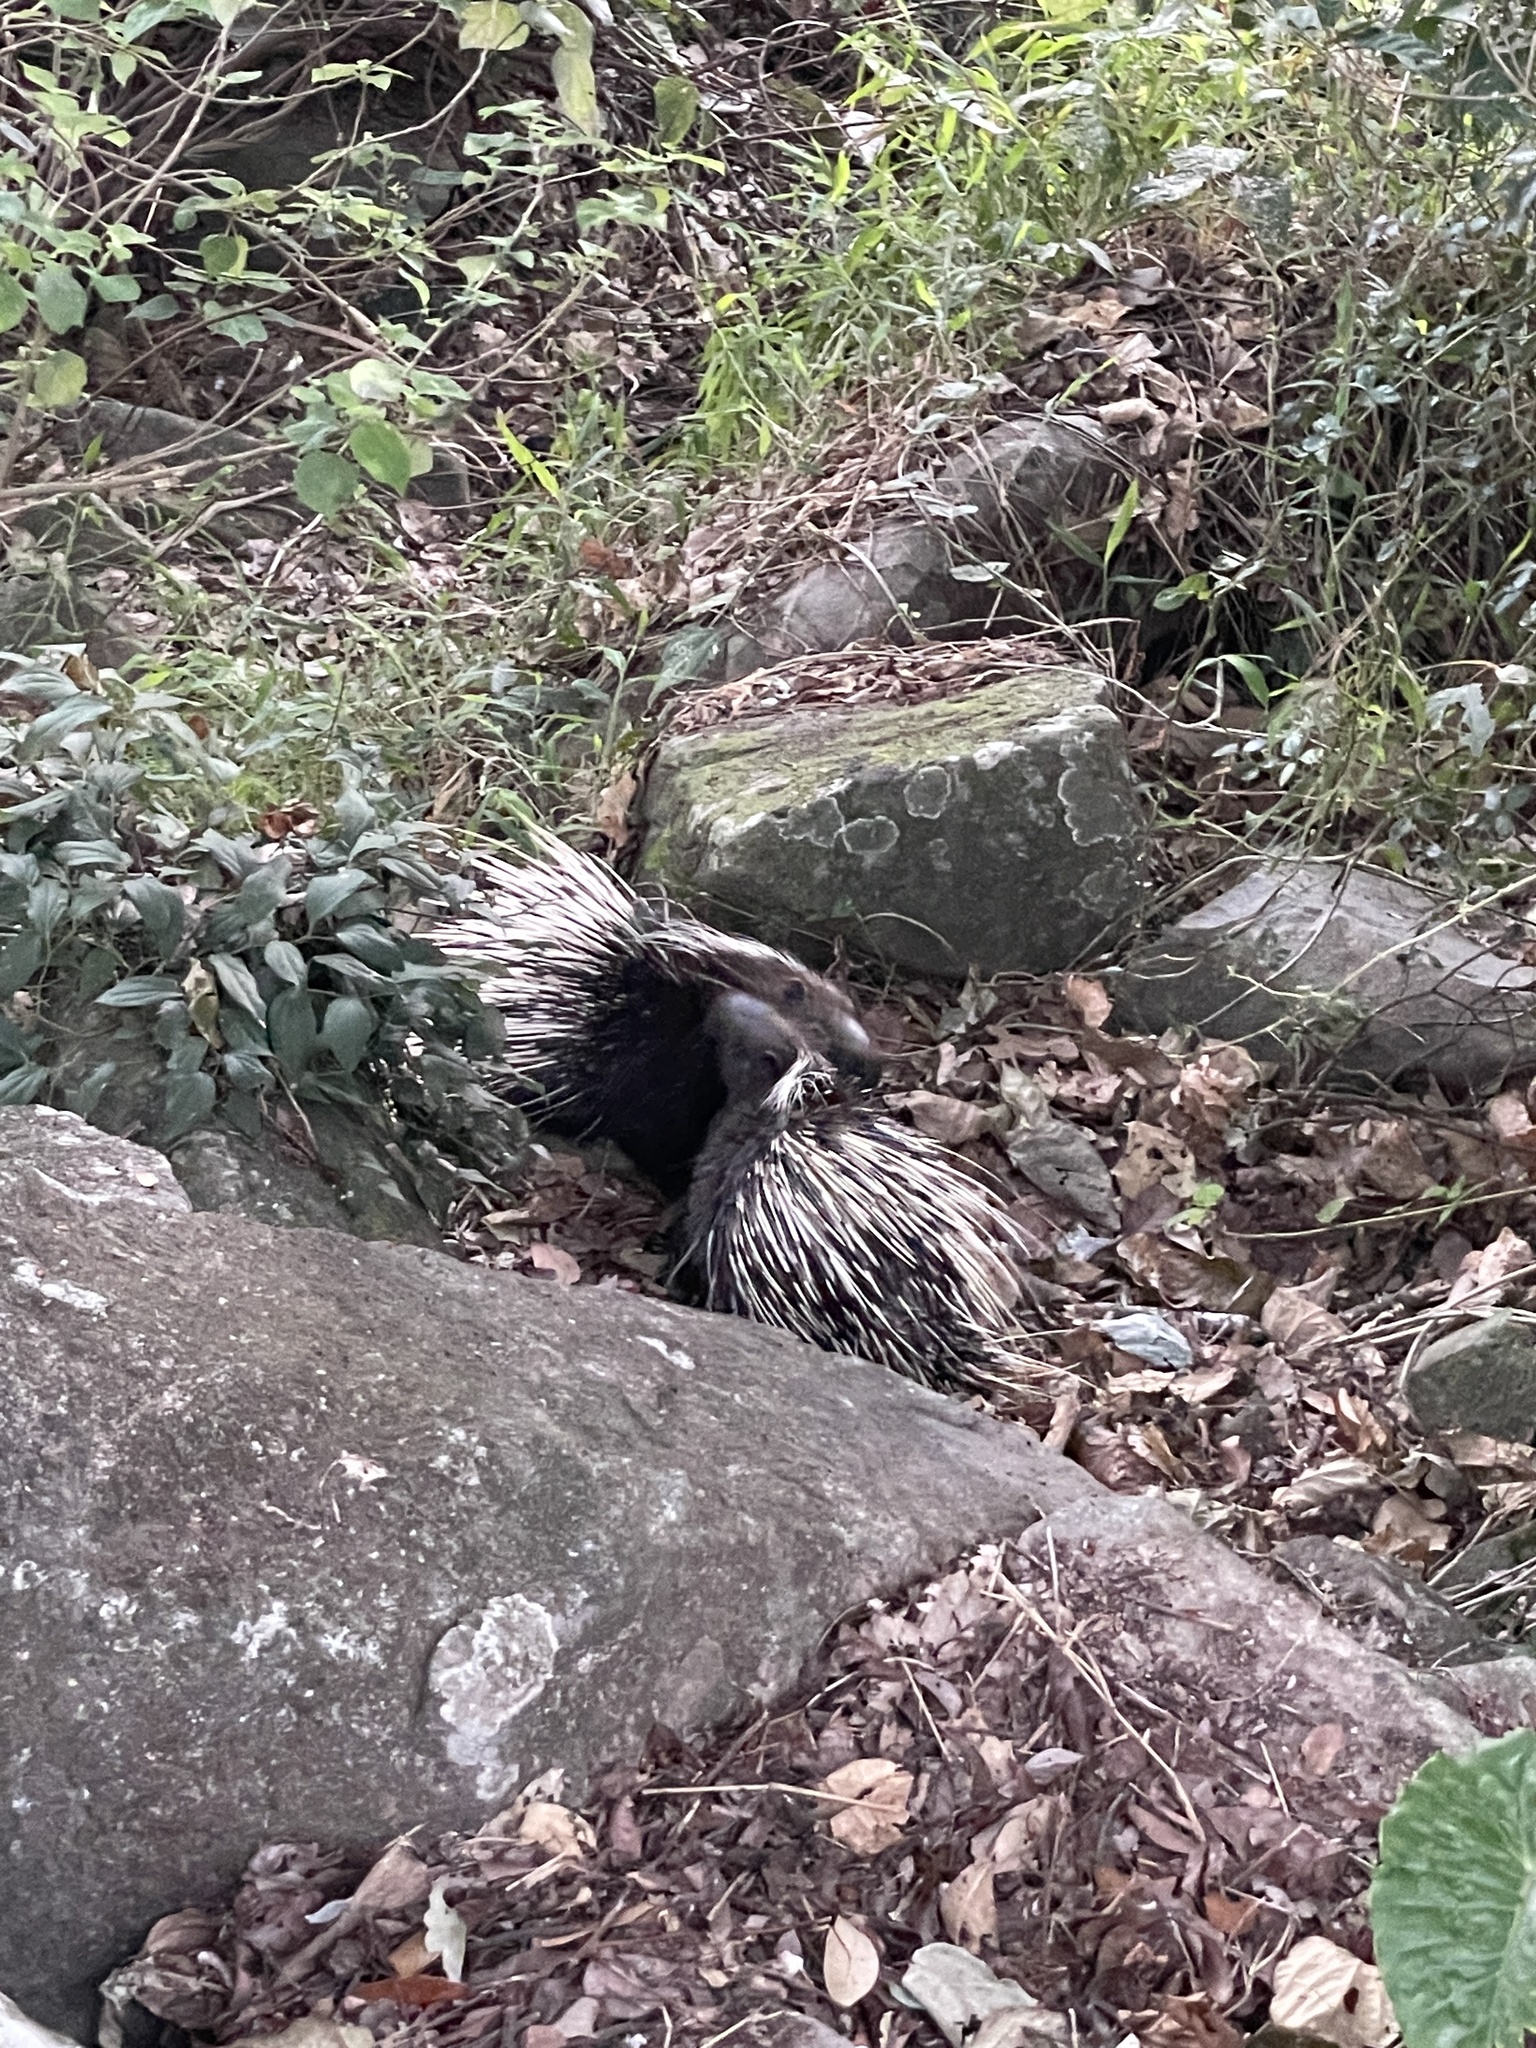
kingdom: Animalia
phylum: Chordata
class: Mammalia
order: Rodentia
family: Hystricidae
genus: Hystrix
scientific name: Hystrix brachyura
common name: Malayan porcupine
